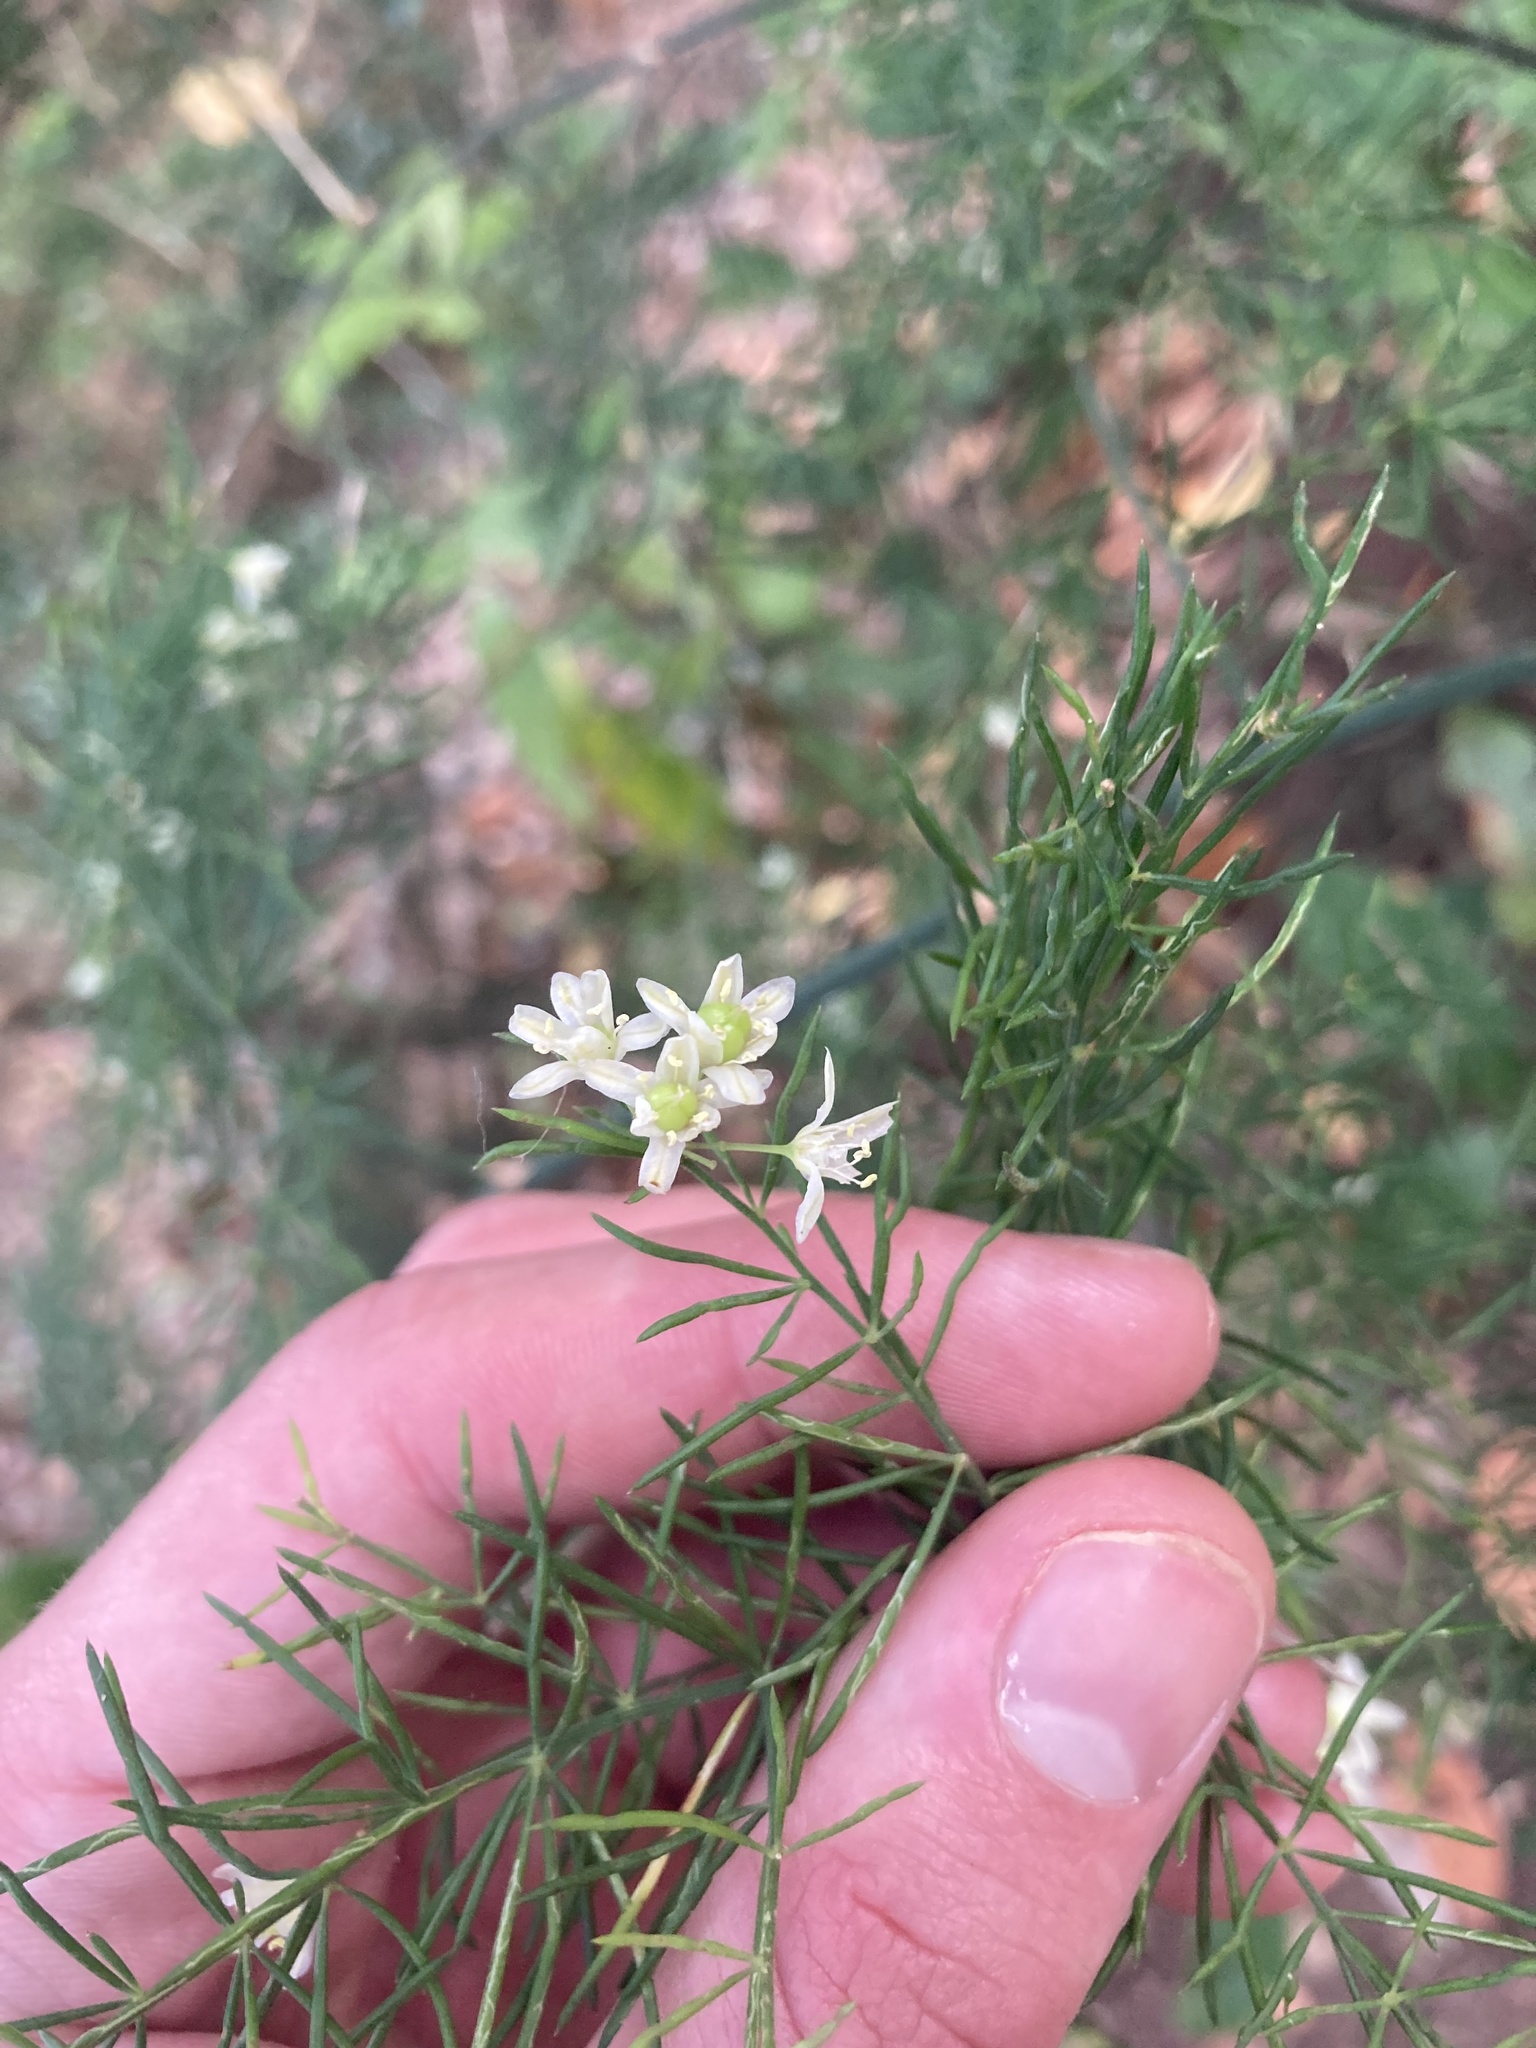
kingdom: Plantae
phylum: Tracheophyta
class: Liliopsida
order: Asparagales
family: Asparagaceae
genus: Asparagus
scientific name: Asparagus fallax
